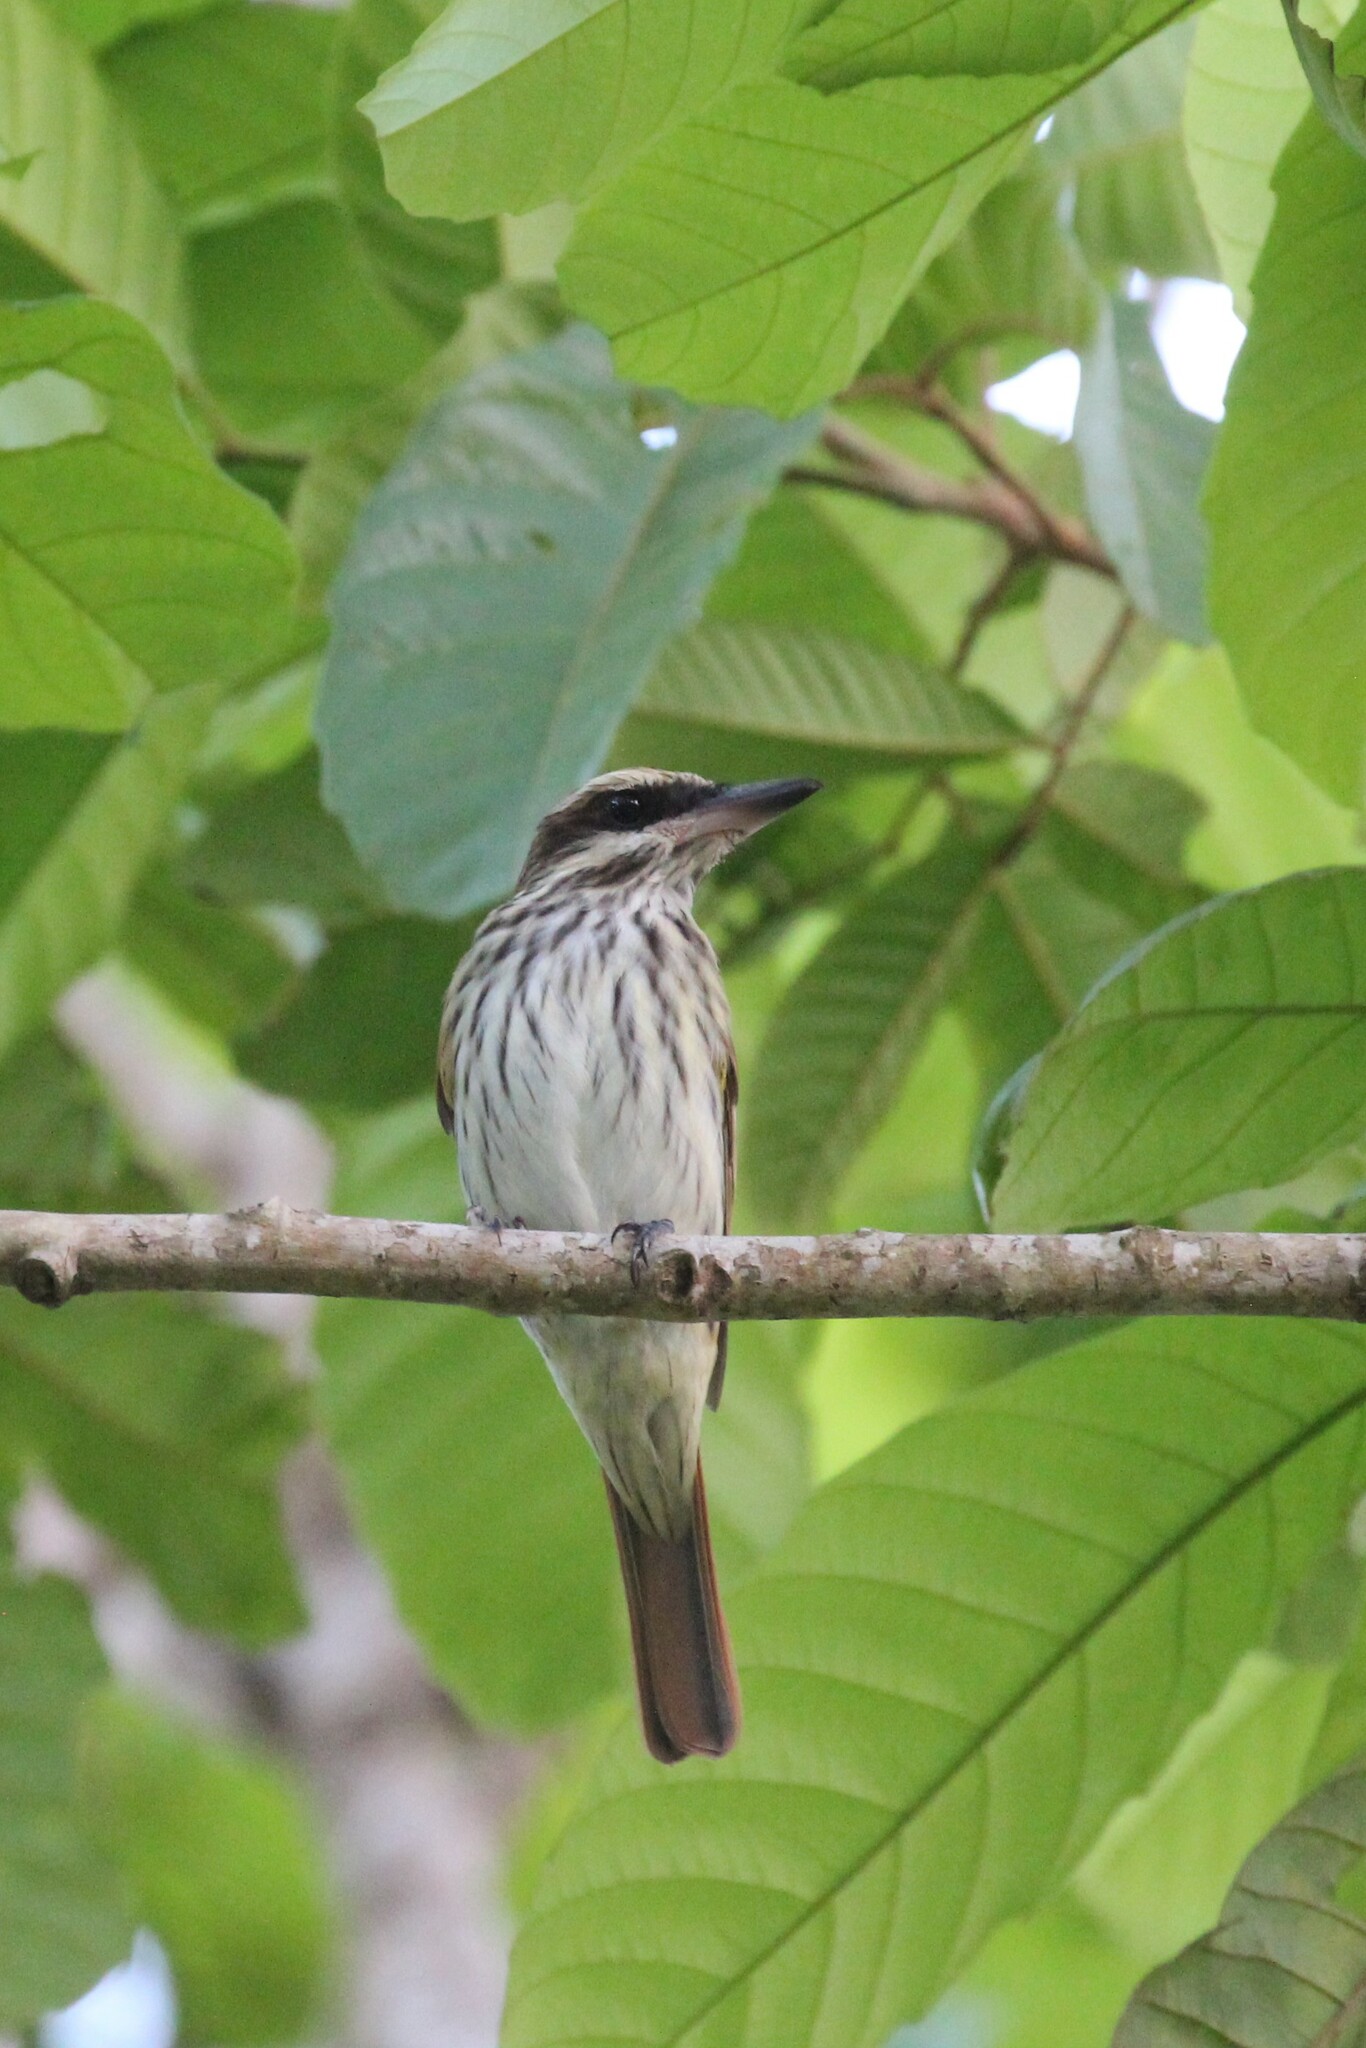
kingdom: Animalia
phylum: Chordata
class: Aves
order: Passeriformes
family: Tyrannidae
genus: Myiodynastes
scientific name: Myiodynastes maculatus
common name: Streaked flycatcher
